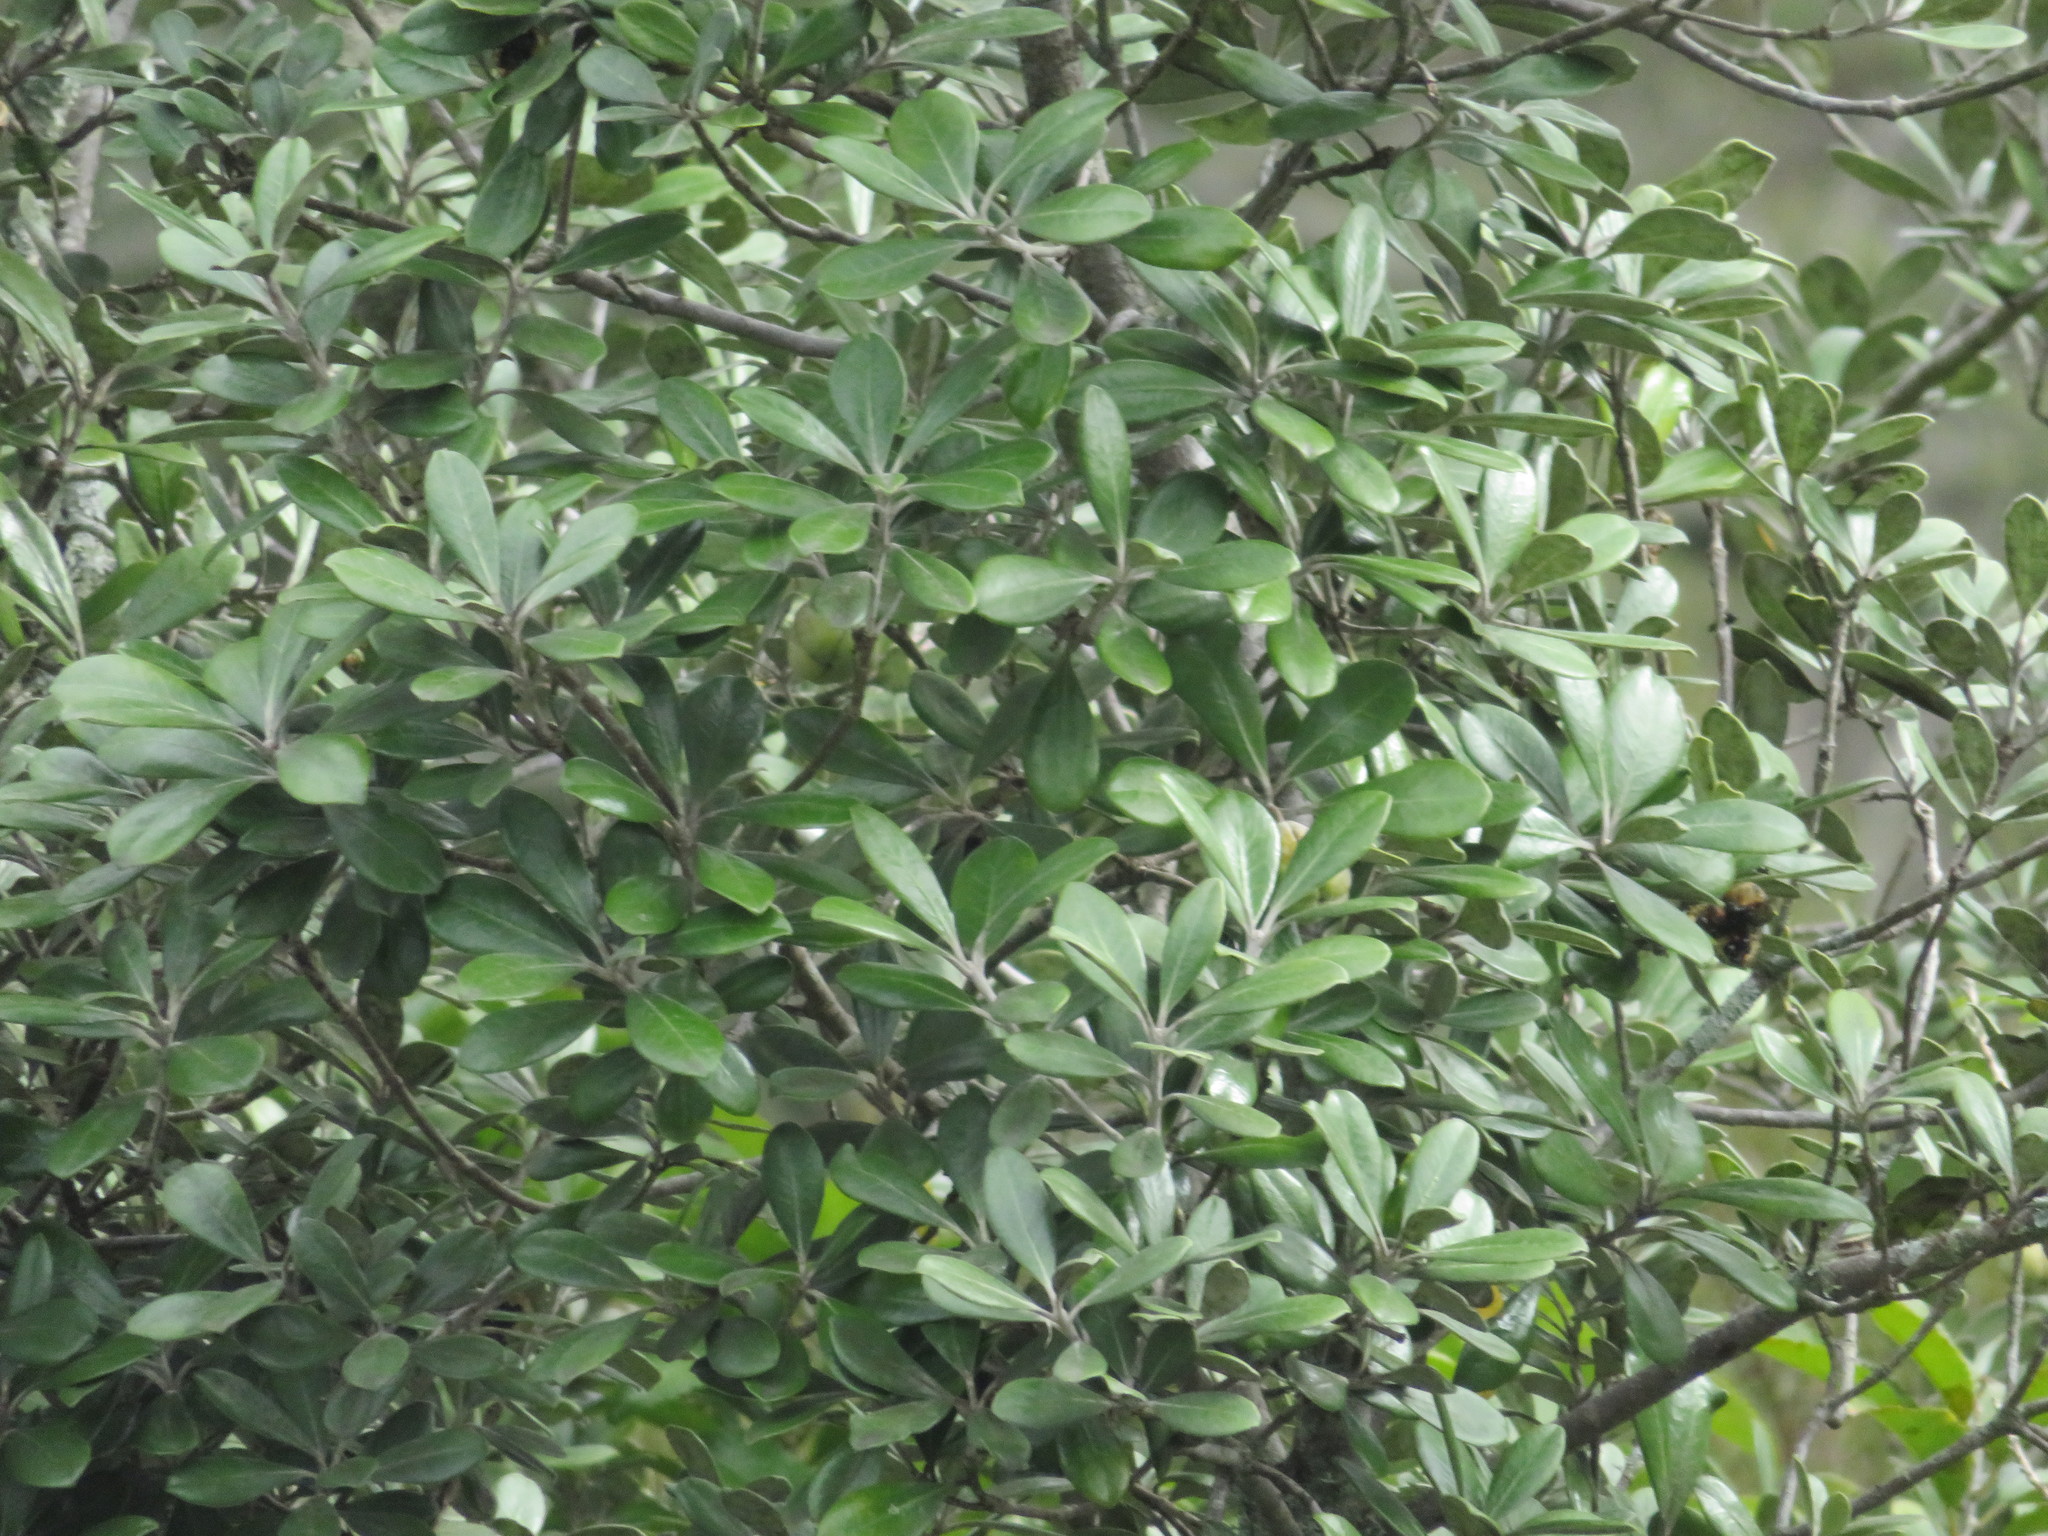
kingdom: Plantae
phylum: Tracheophyta
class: Magnoliopsida
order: Apiales
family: Pittosporaceae
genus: Pittosporum
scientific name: Pittosporum crassifolium
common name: Karo
